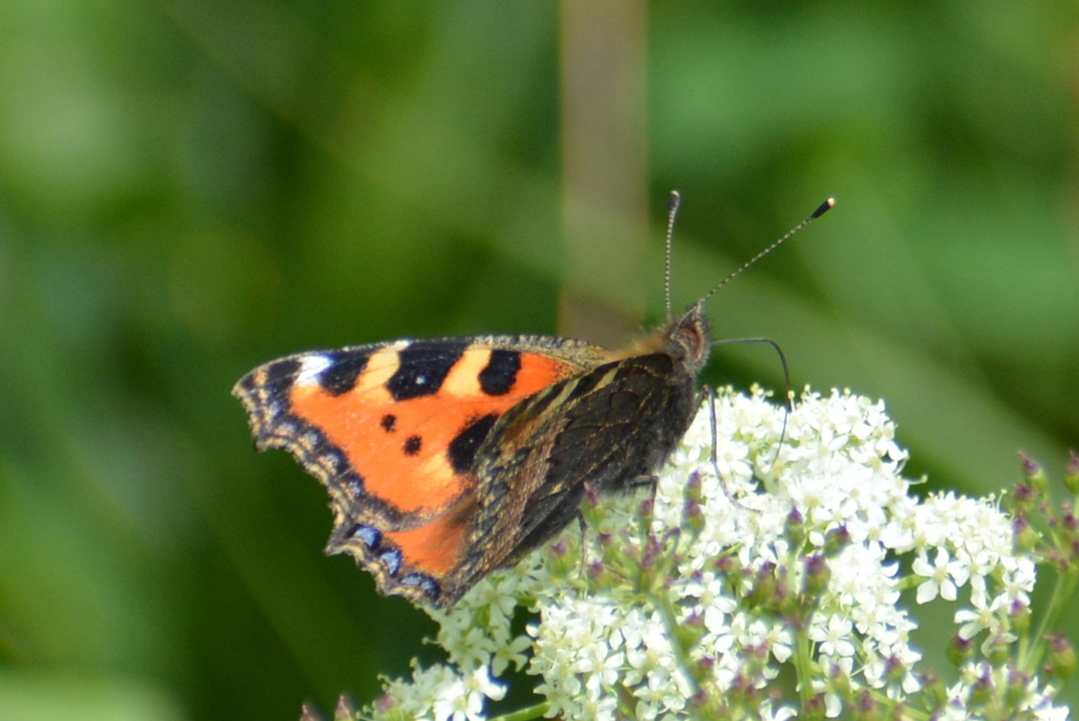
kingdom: Animalia
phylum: Arthropoda
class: Insecta
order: Lepidoptera
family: Nymphalidae
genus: Aglais
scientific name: Aglais urticae
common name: Small tortoiseshell
